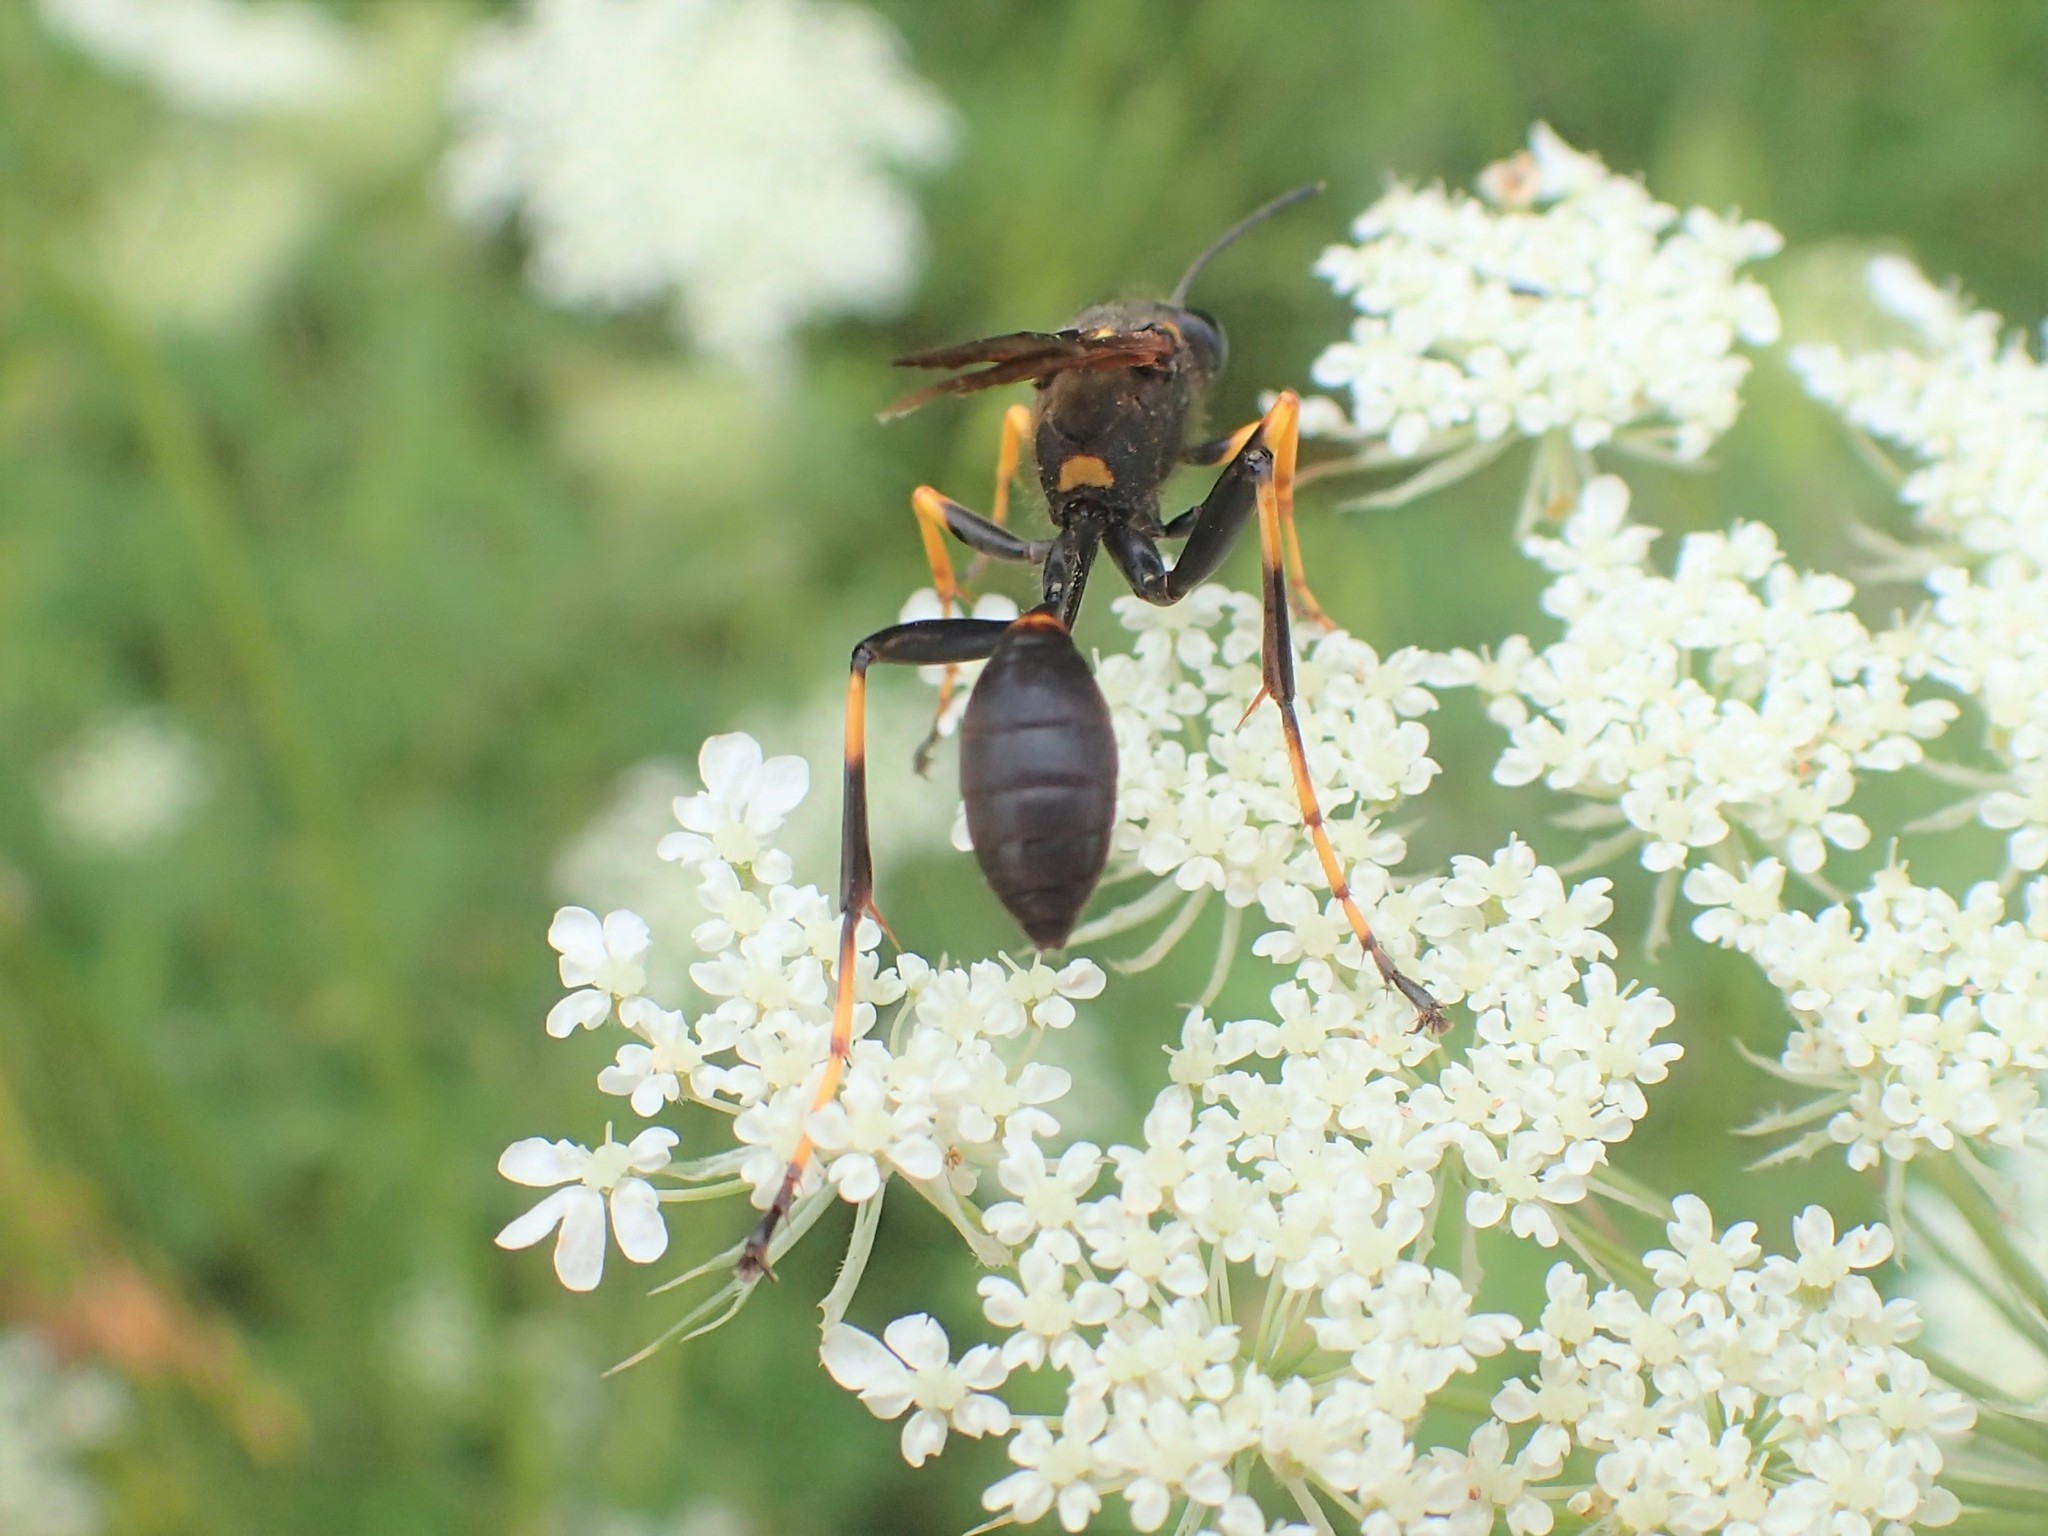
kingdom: Animalia
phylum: Arthropoda
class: Insecta
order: Hymenoptera
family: Sphecidae
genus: Sceliphron
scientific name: Sceliphron caementarium
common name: Mud dauber
